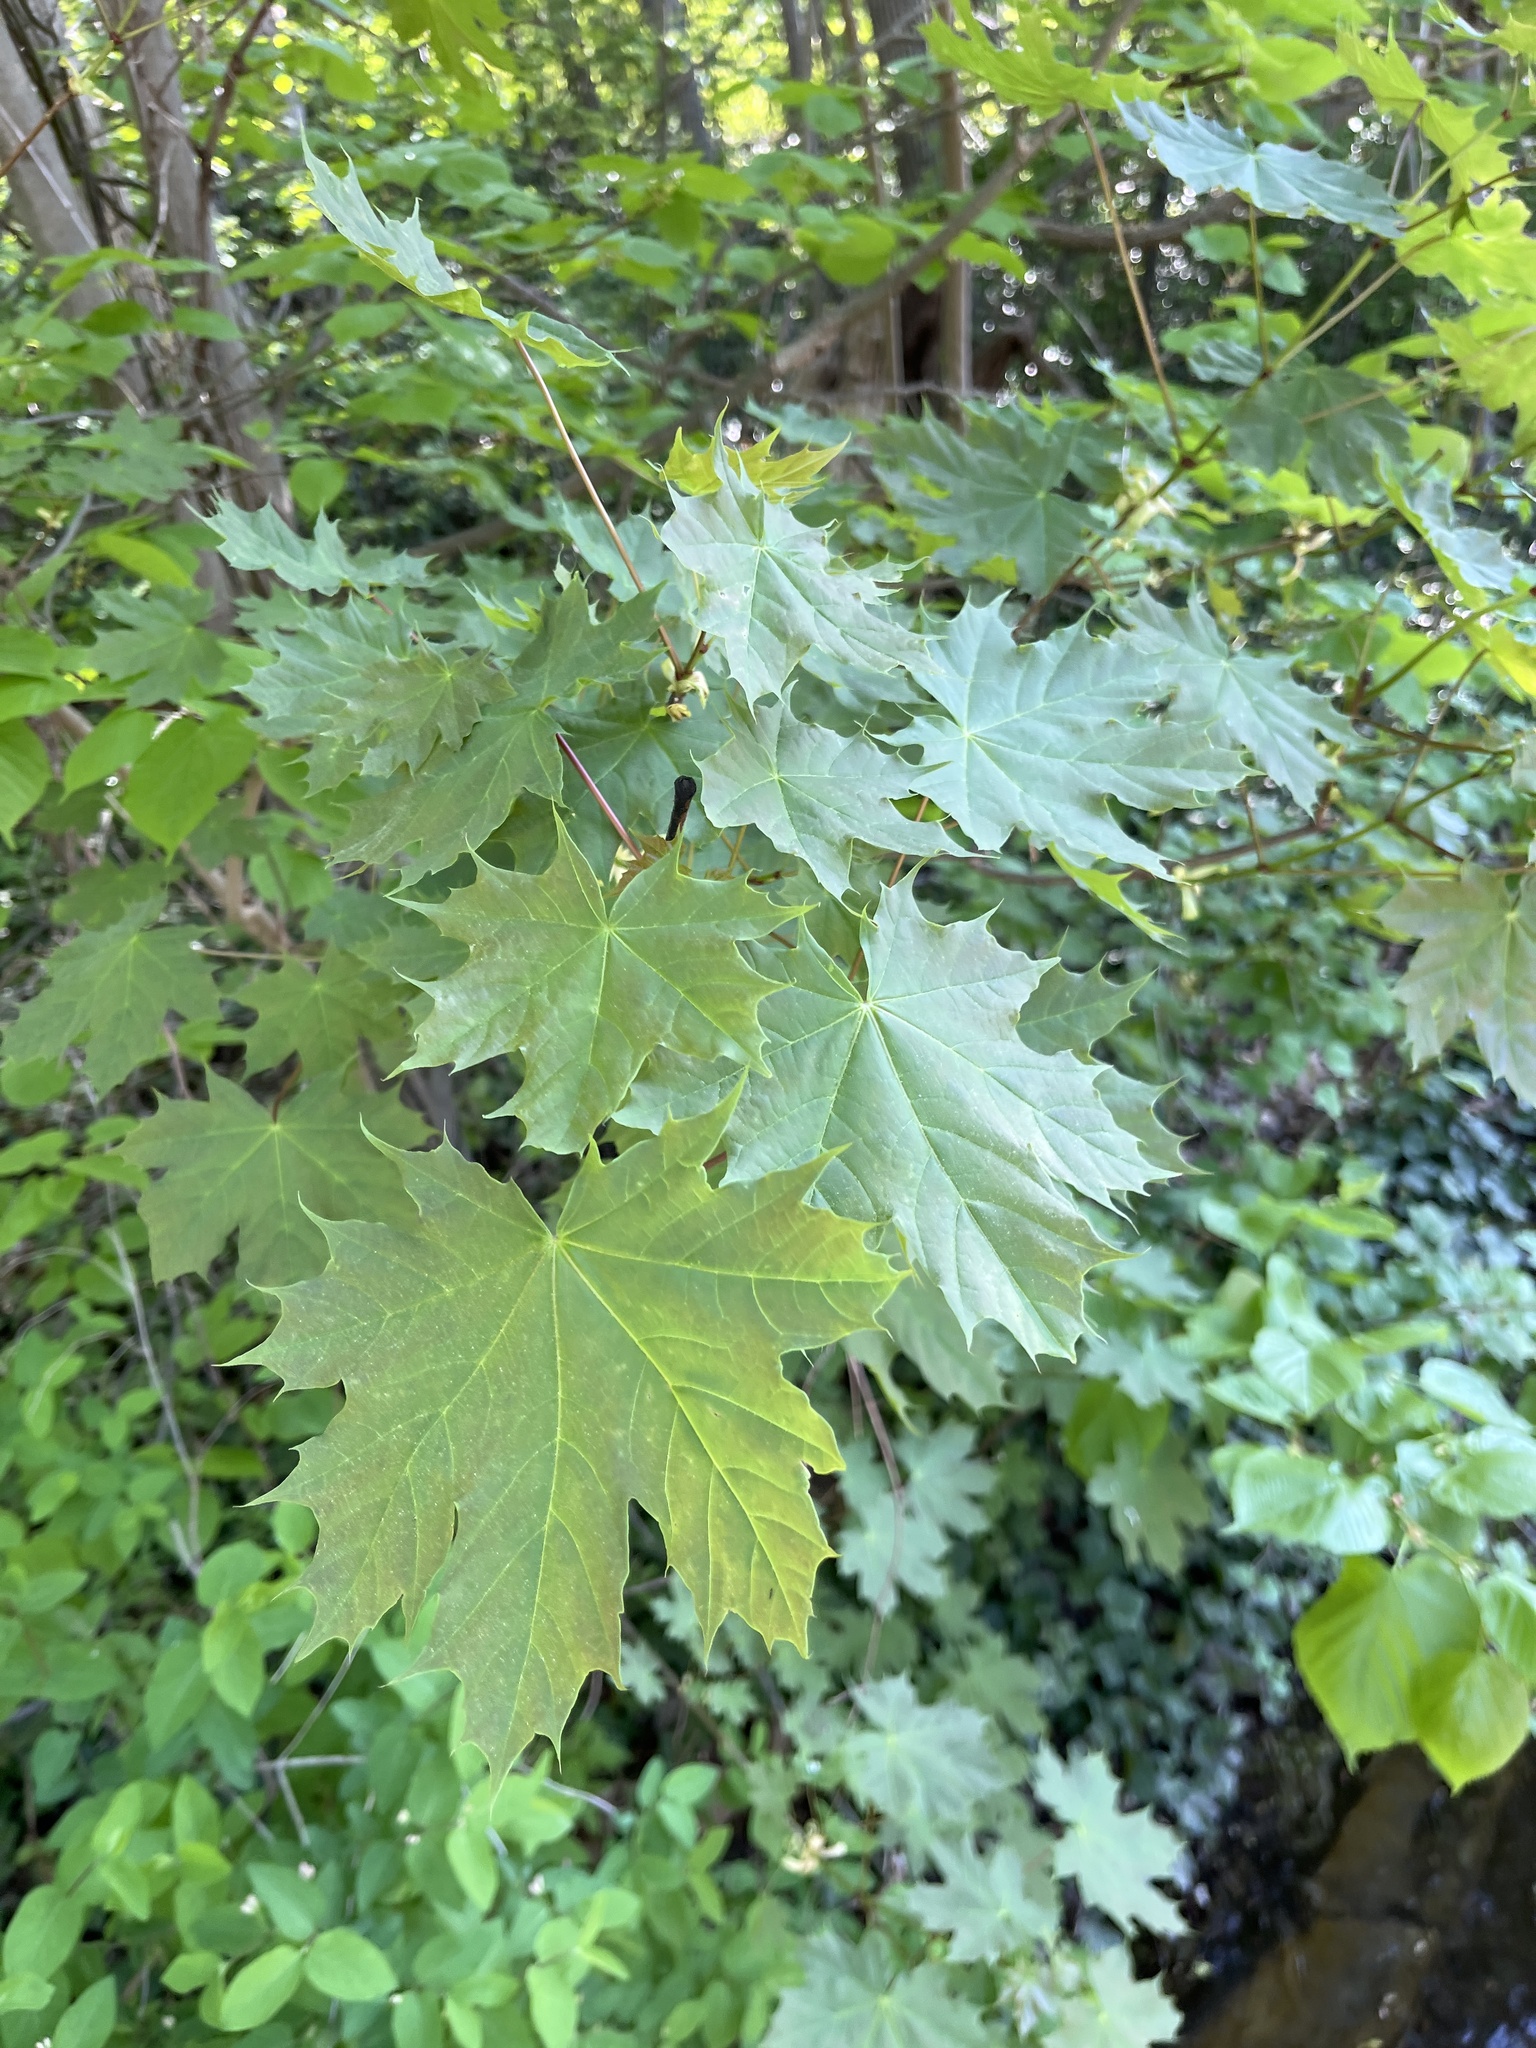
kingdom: Plantae
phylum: Tracheophyta
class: Magnoliopsida
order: Sapindales
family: Sapindaceae
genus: Acer
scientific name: Acer platanoides
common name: Norway maple
